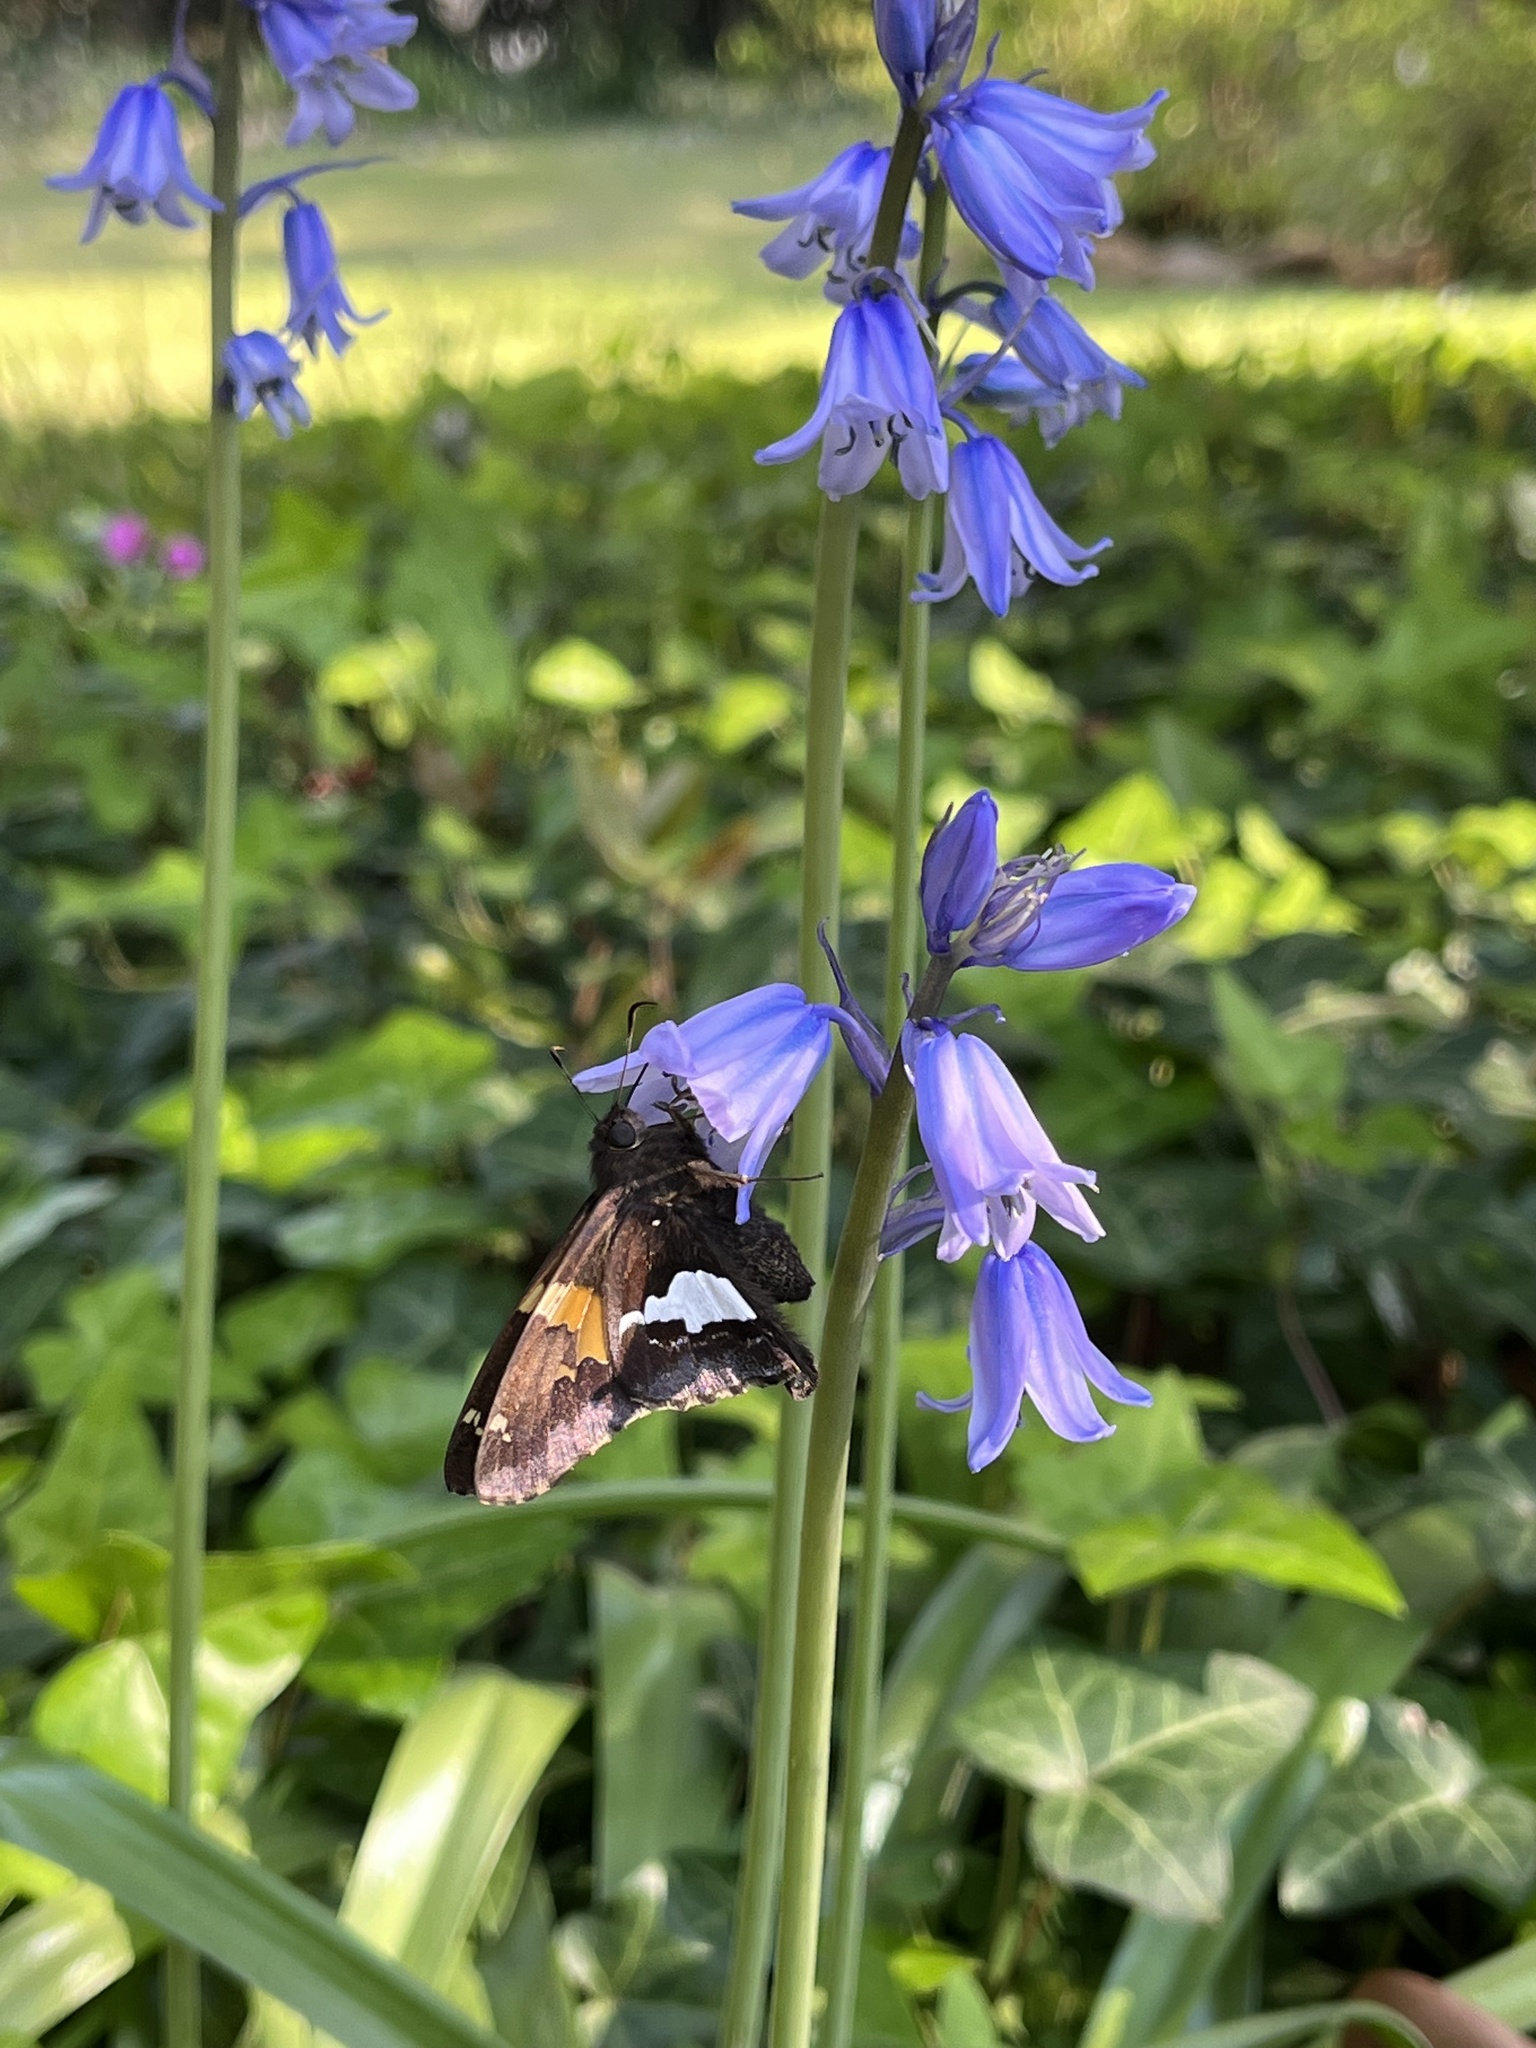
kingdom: Animalia
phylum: Arthropoda
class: Insecta
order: Lepidoptera
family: Hesperiidae
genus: Epargyreus
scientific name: Epargyreus clarus
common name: Silver-spotted skipper
